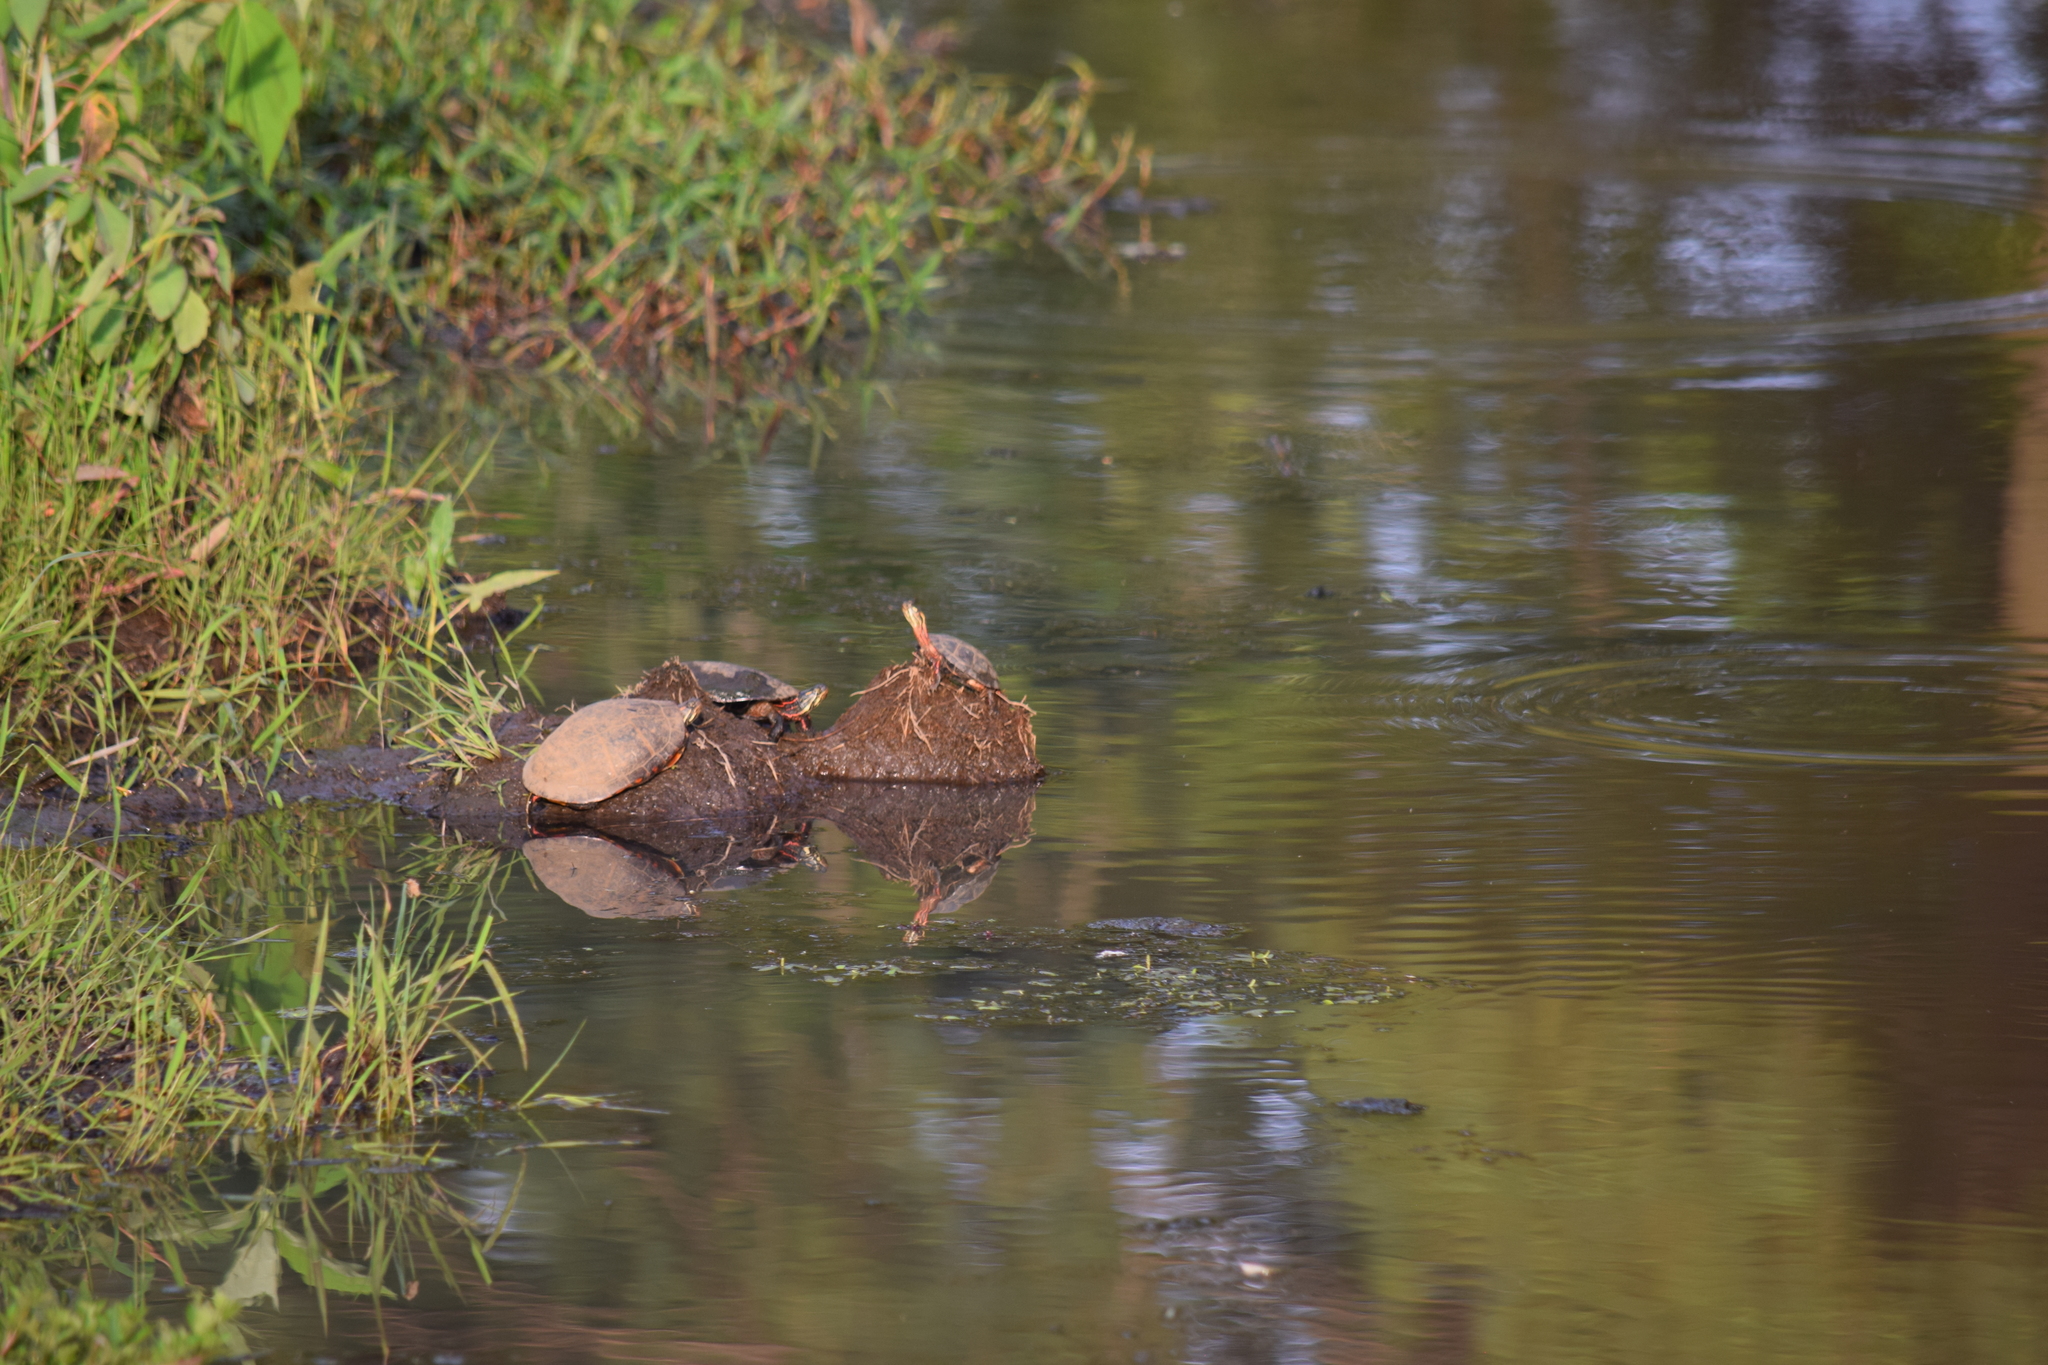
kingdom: Animalia
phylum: Chordata
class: Testudines
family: Emydidae
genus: Chrysemys
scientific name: Chrysemys picta
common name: Painted turtle
